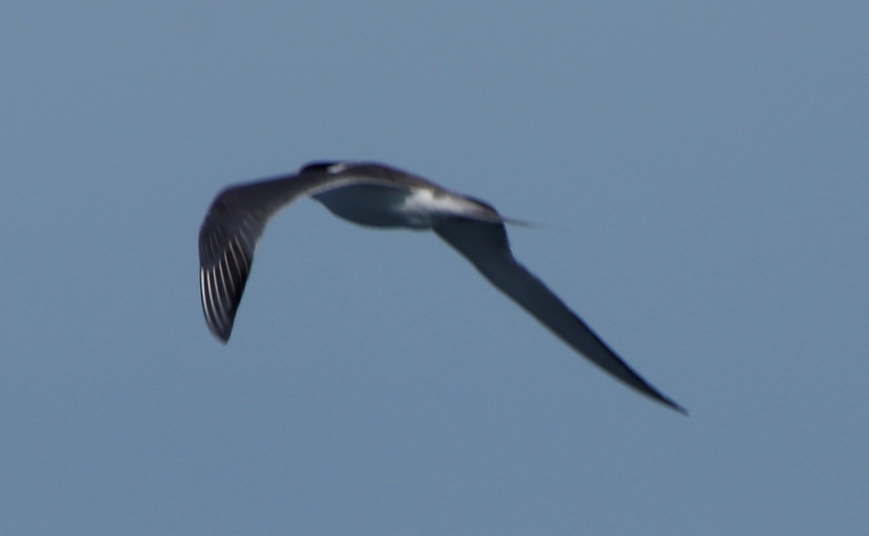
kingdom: Animalia
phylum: Chordata
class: Aves
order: Charadriiformes
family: Laridae
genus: Thalasseus
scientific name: Thalasseus bergii
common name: Greater crested tern
